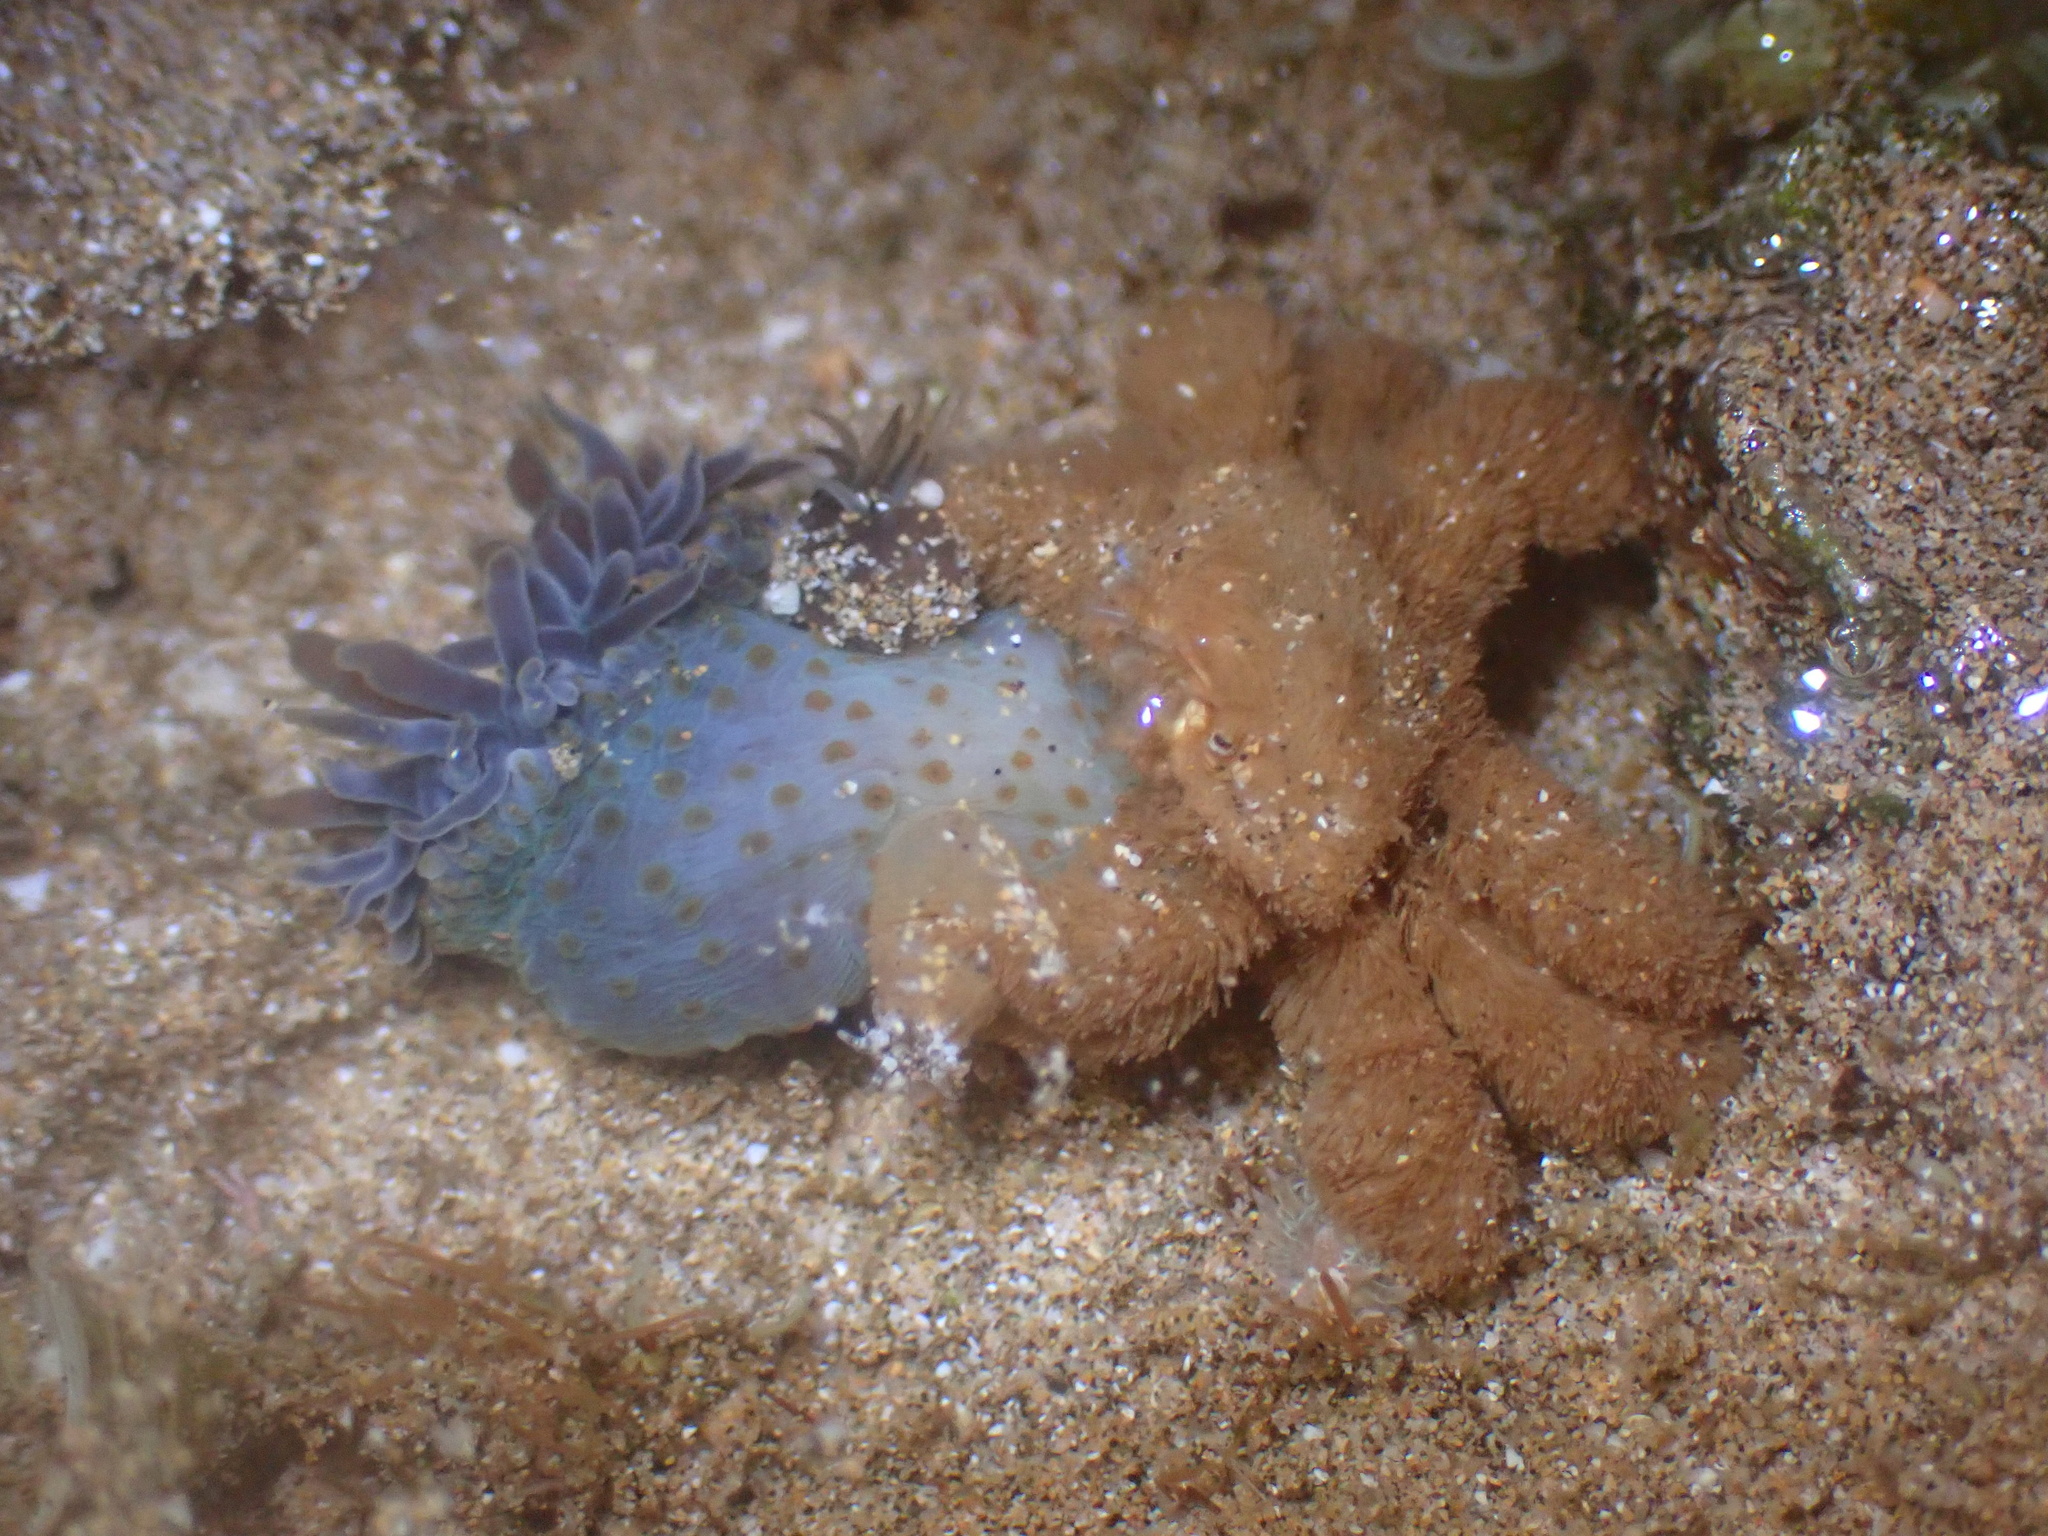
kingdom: Animalia
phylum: Arthropoda
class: Malacostraca
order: Decapoda
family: Xanthidae
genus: Polydectus
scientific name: Polydectus cupulifer
